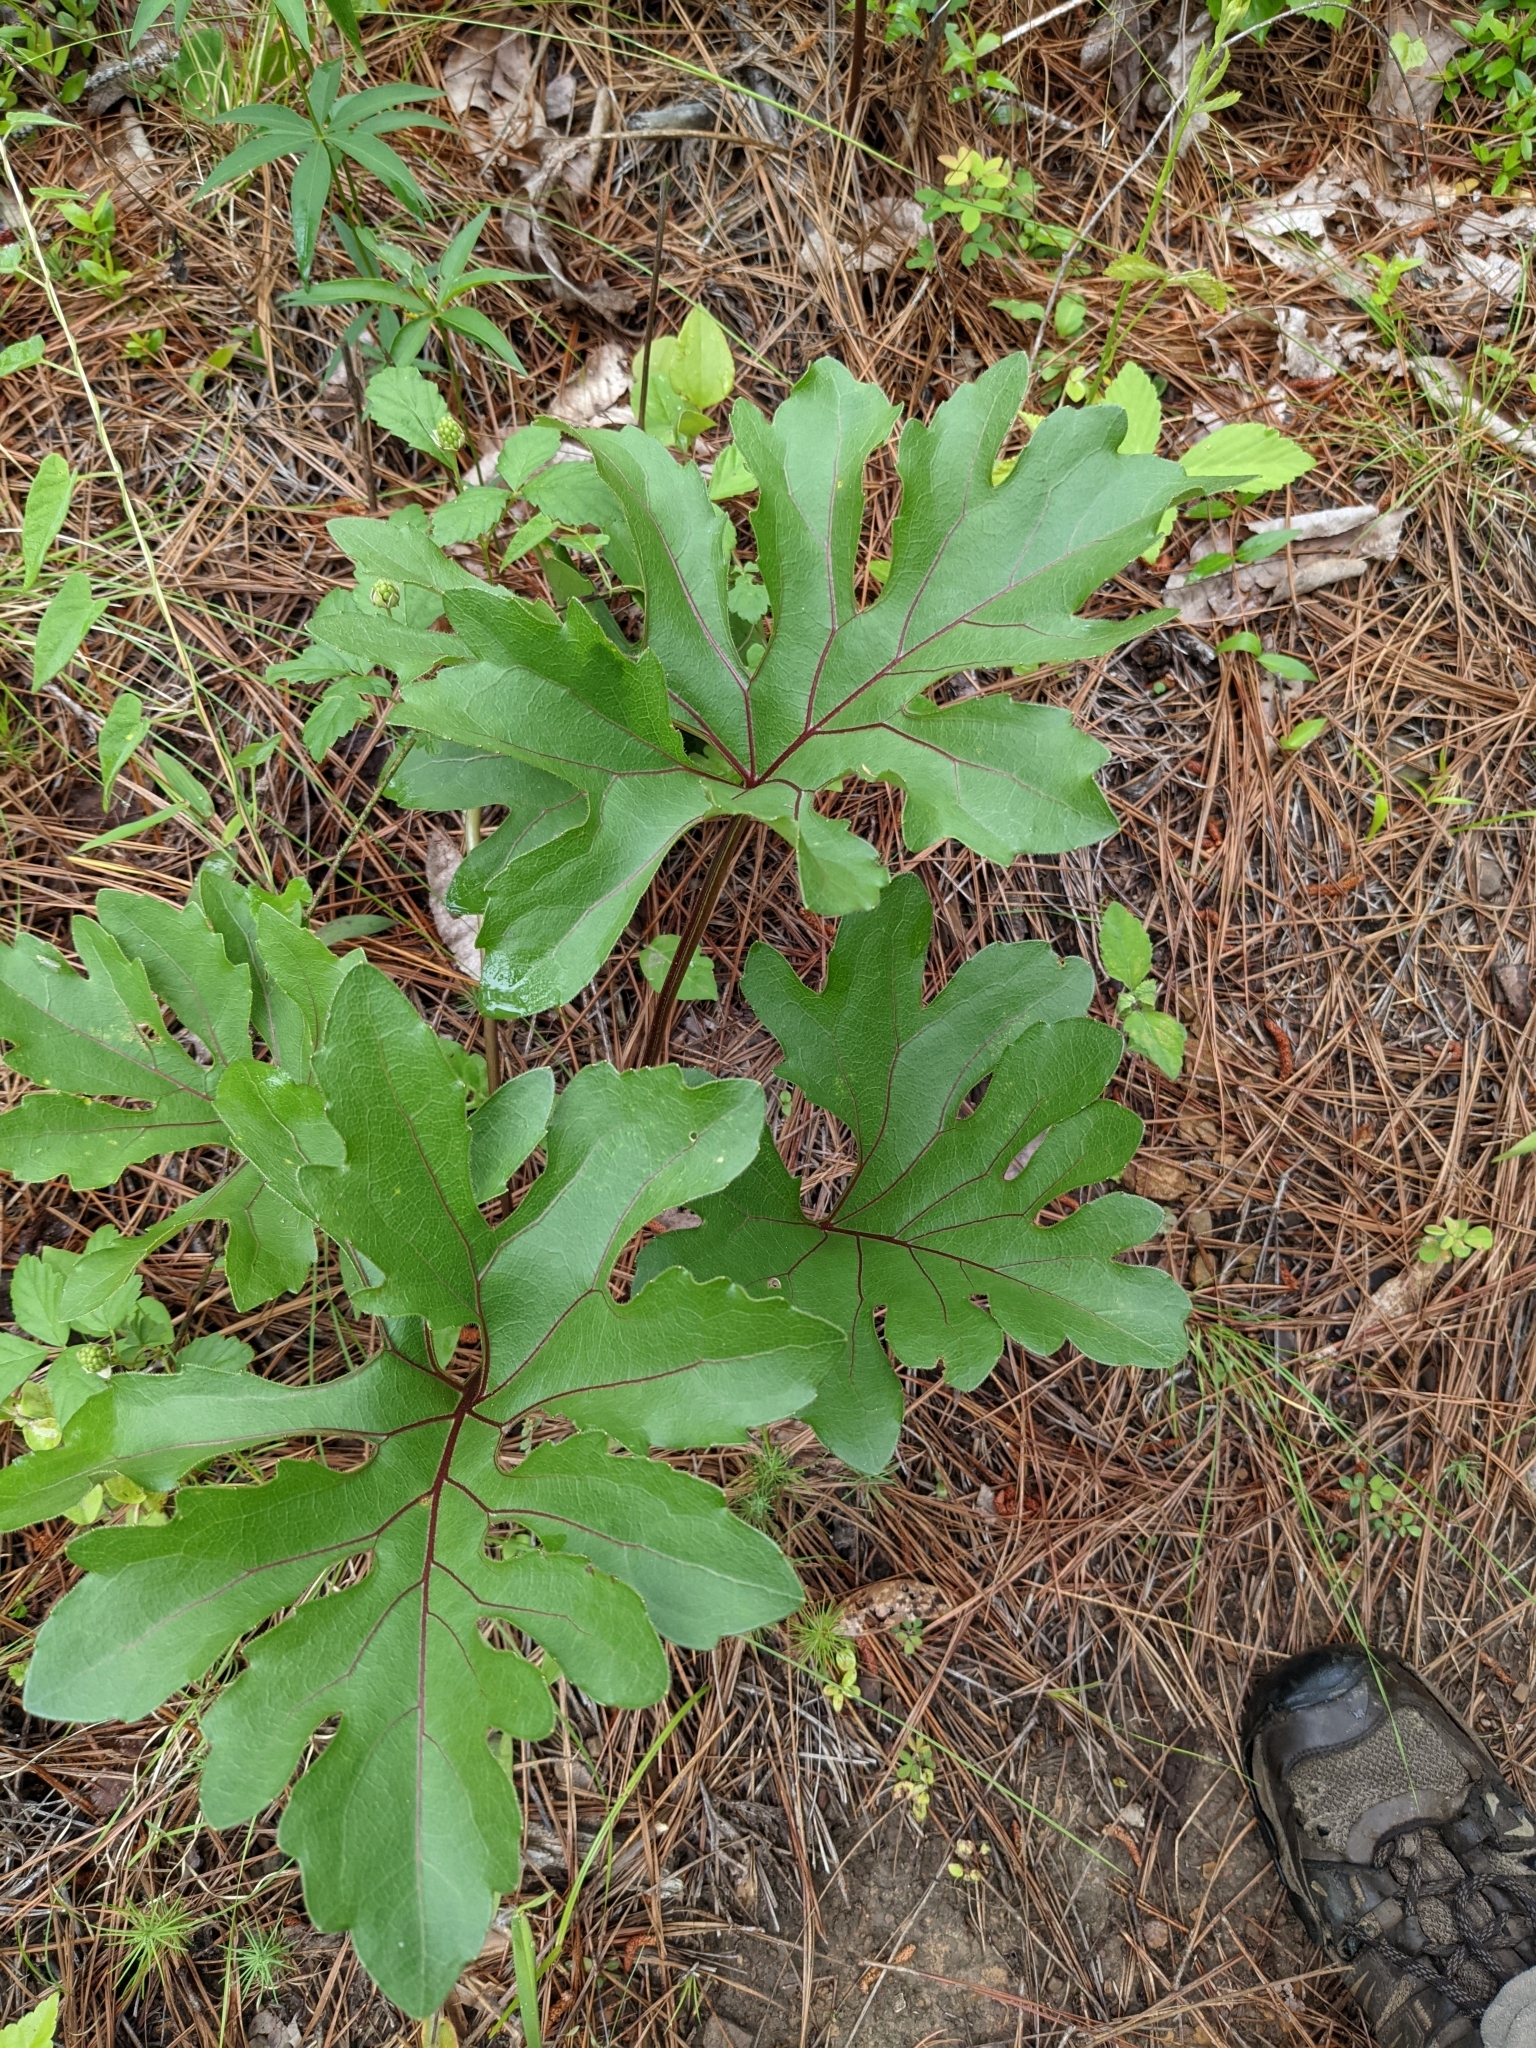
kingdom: Plantae
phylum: Tracheophyta
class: Magnoliopsida
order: Asterales
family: Asteraceae
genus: Silphium
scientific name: Silphium compositum
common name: Lesser basal-leaf rosinweed
